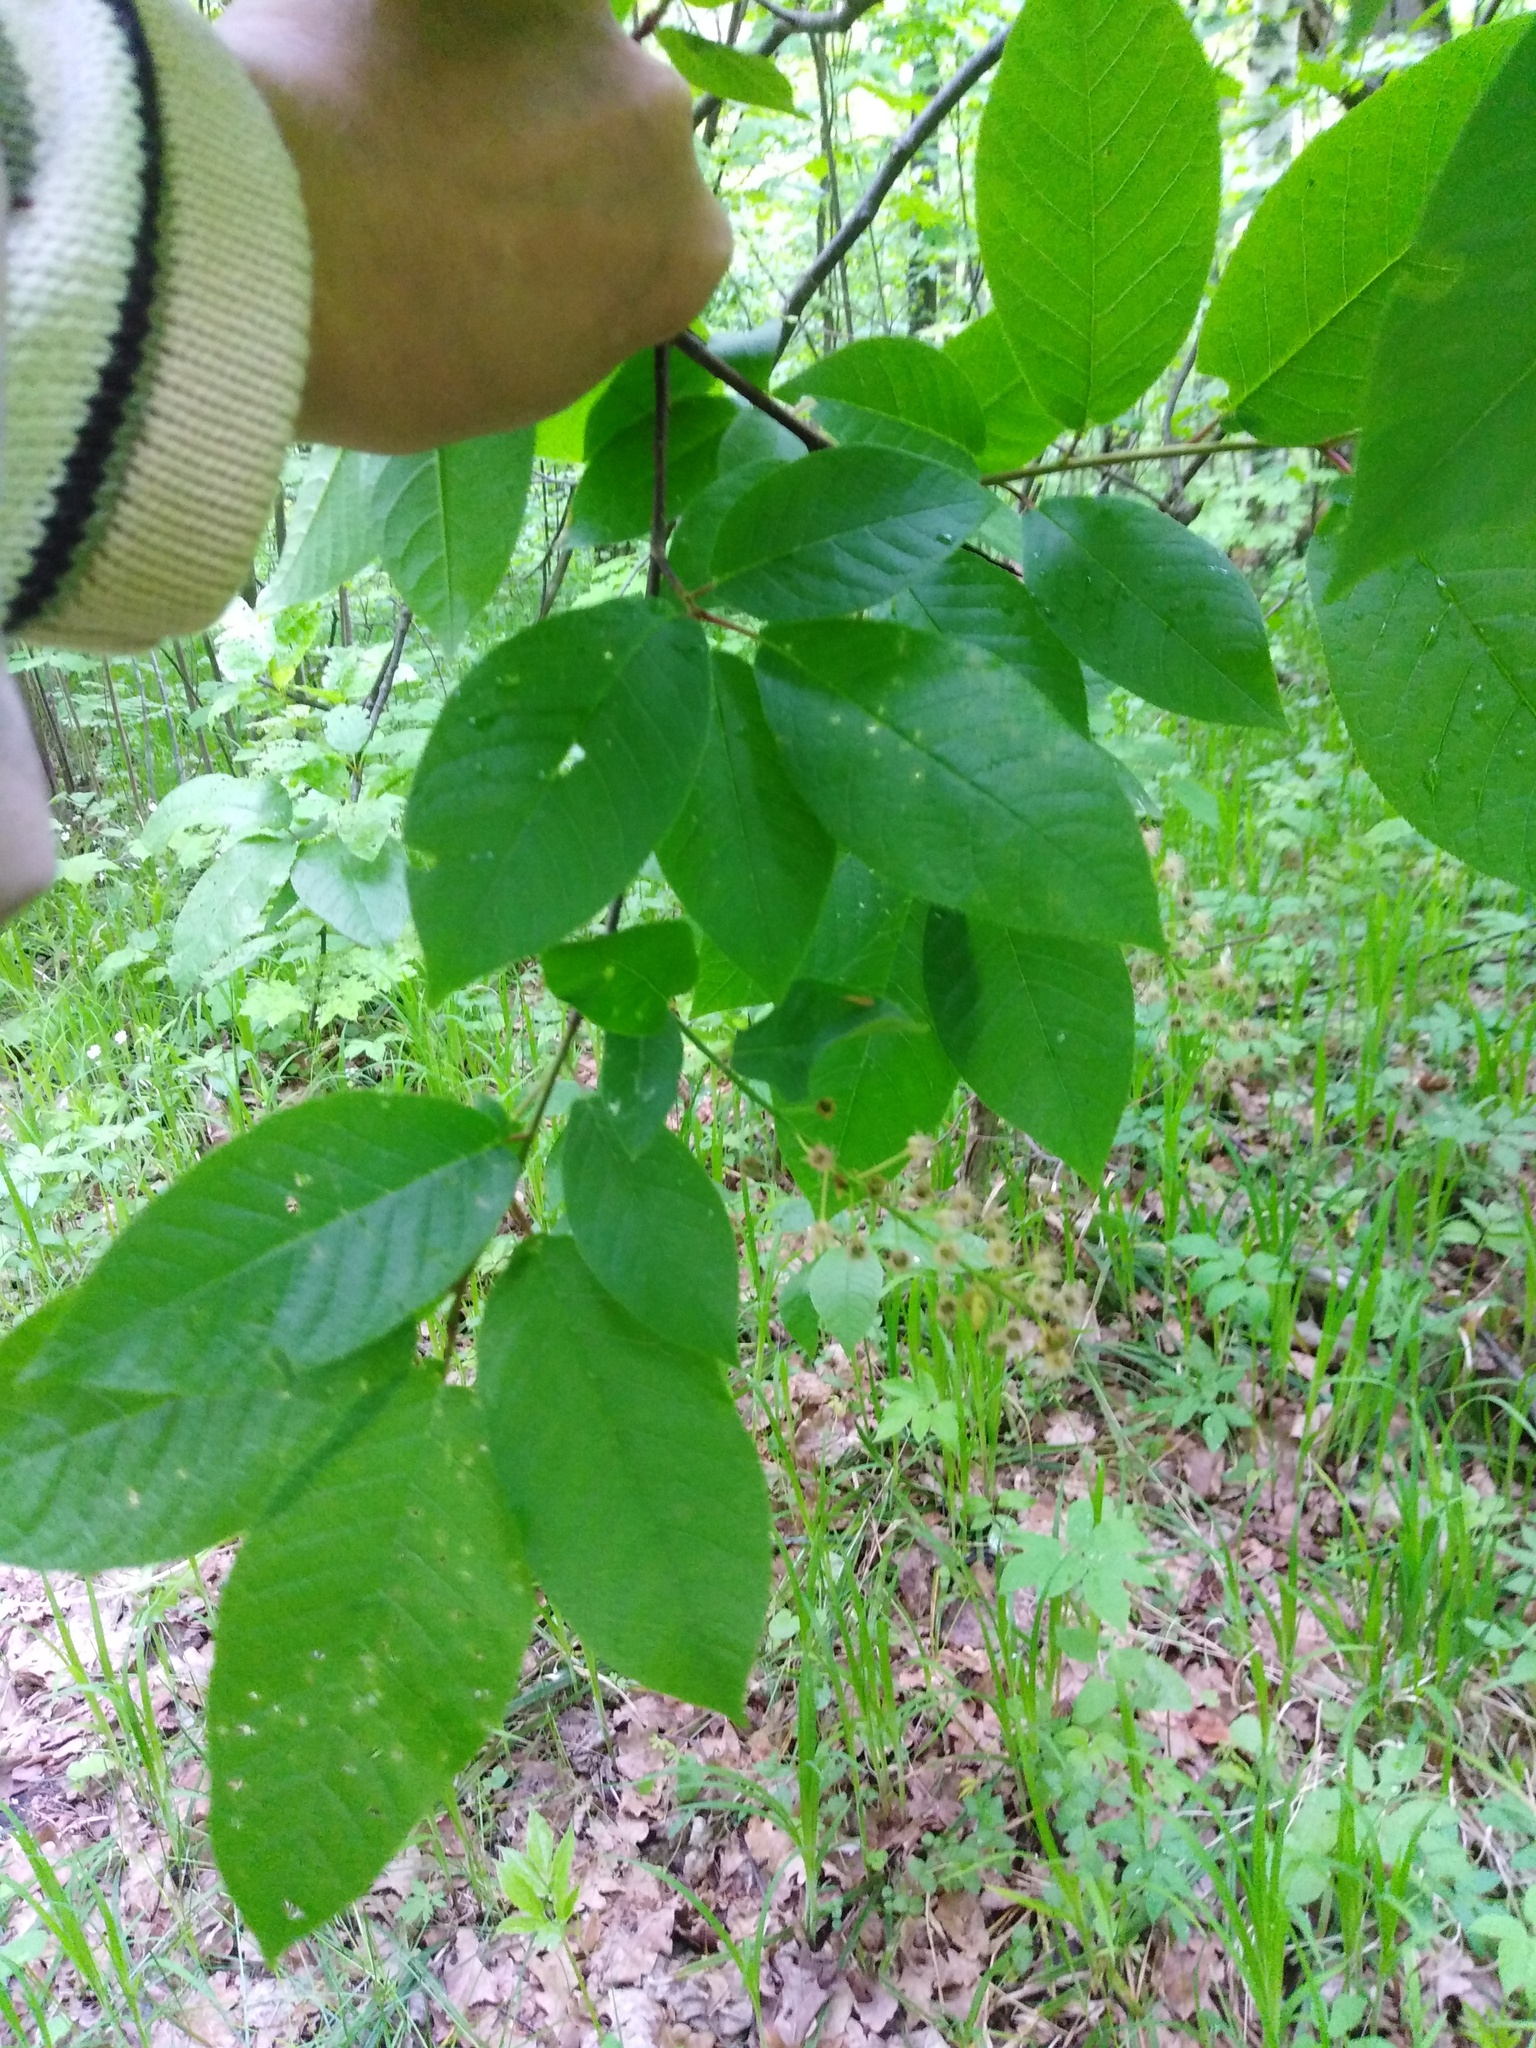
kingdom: Plantae
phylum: Tracheophyta
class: Magnoliopsida
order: Rosales
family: Rosaceae
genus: Prunus
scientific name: Prunus padus
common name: Bird cherry
